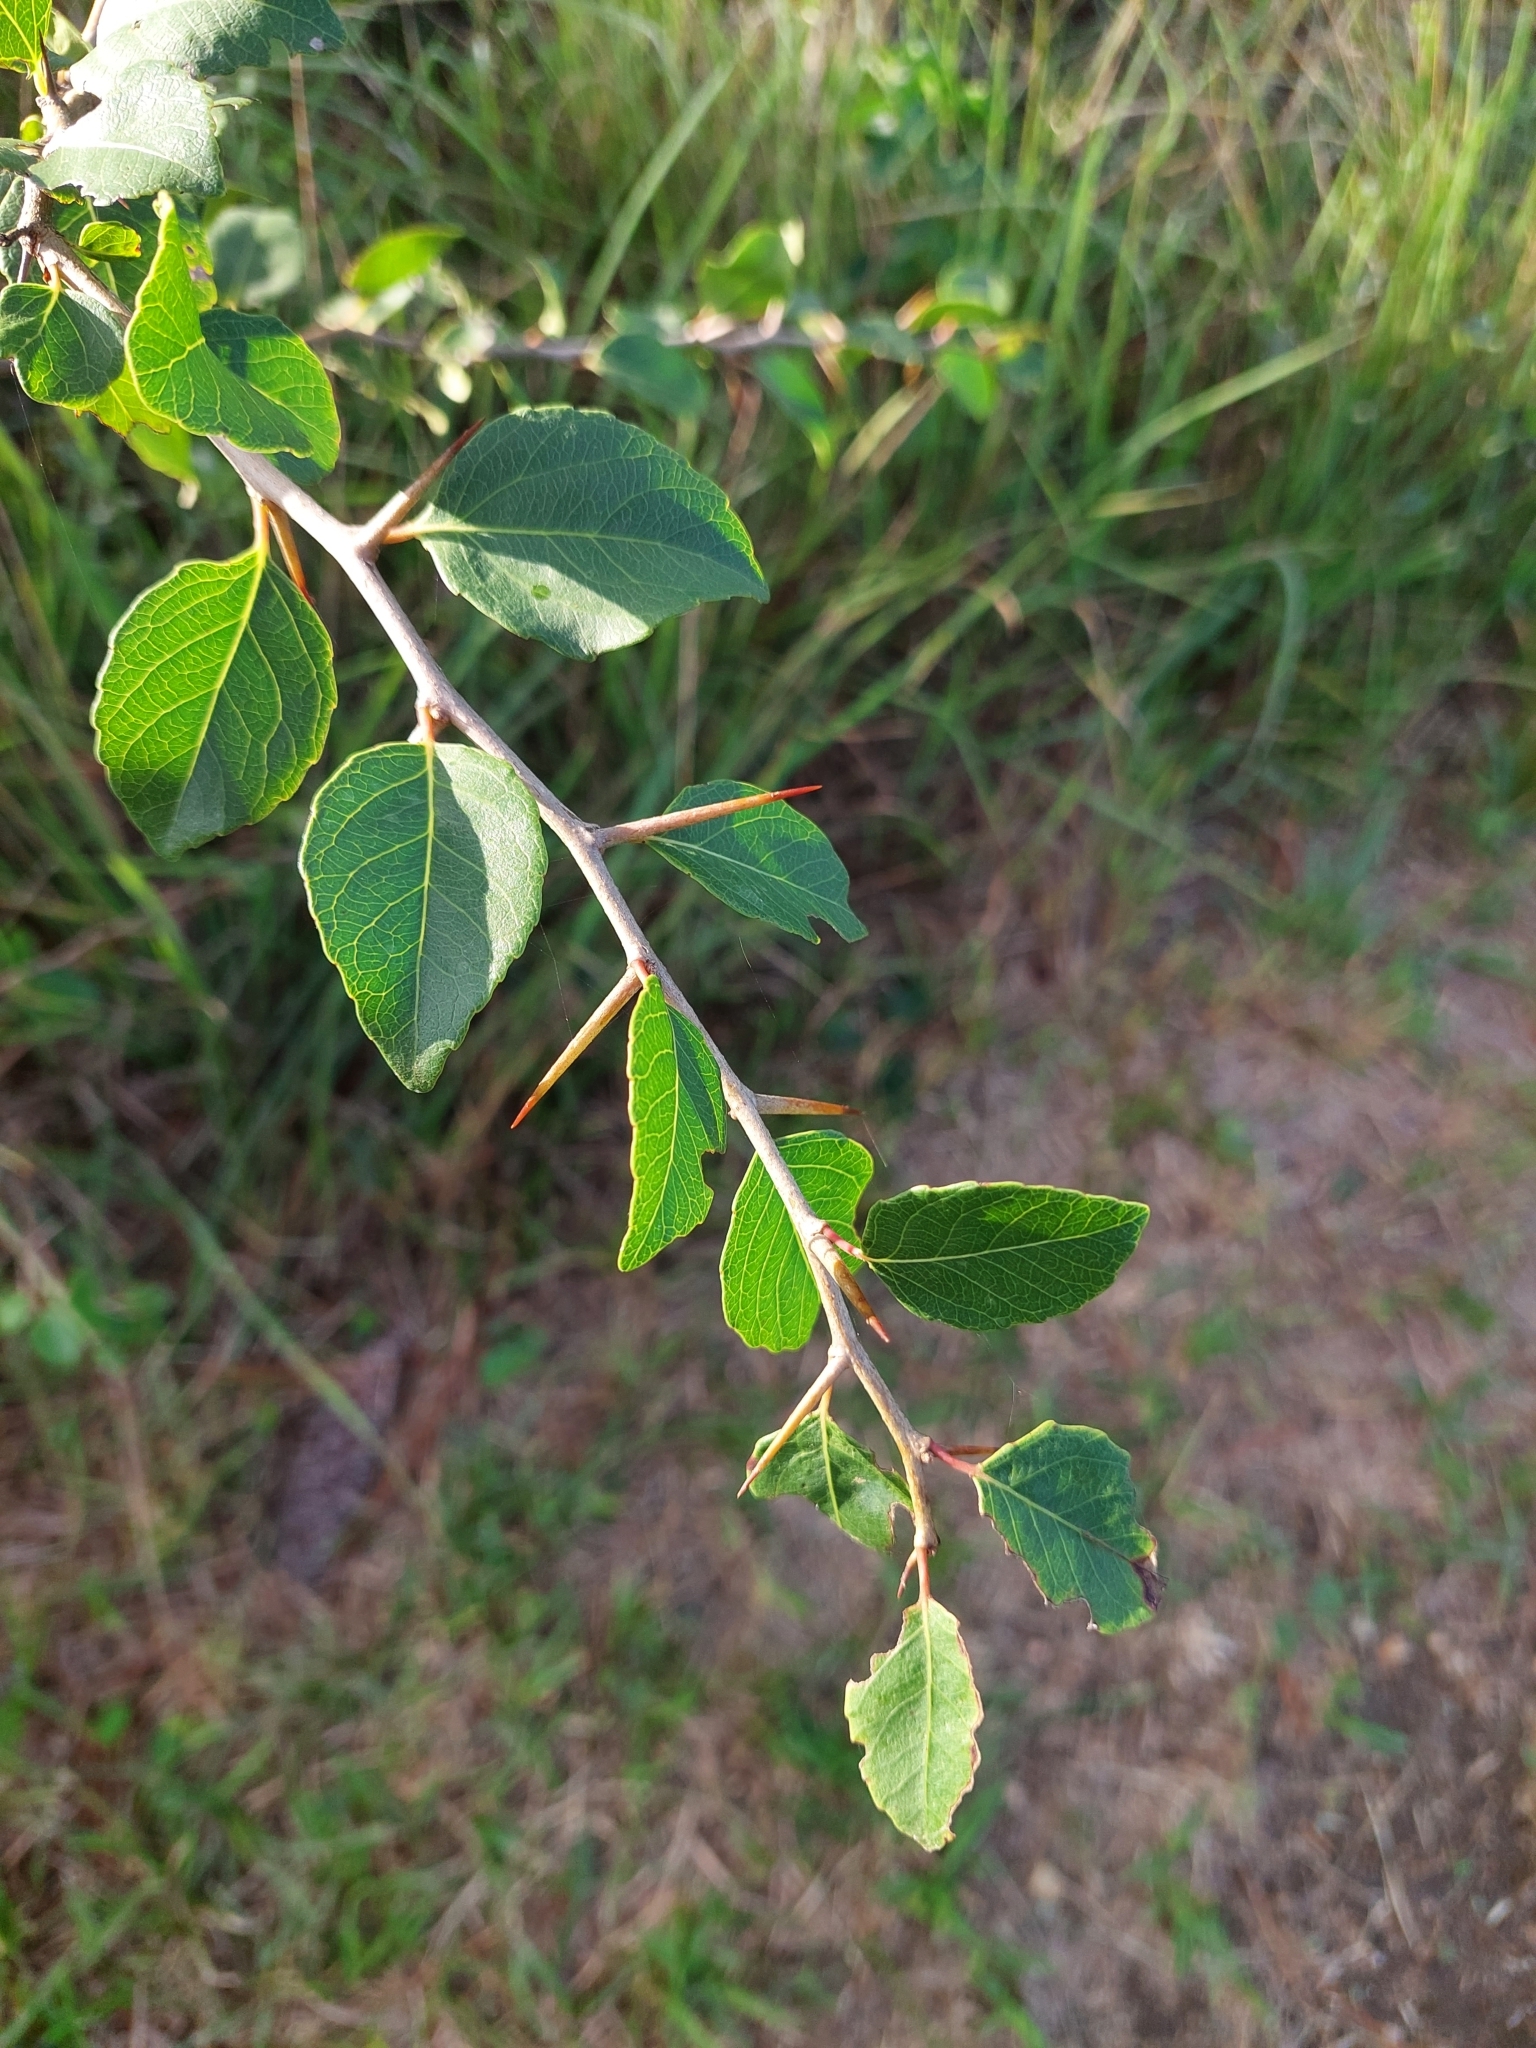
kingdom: Plantae
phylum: Tracheophyta
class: Magnoliopsida
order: Malpighiales
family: Salicaceae
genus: Xylosma
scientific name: Xylosma venosa
